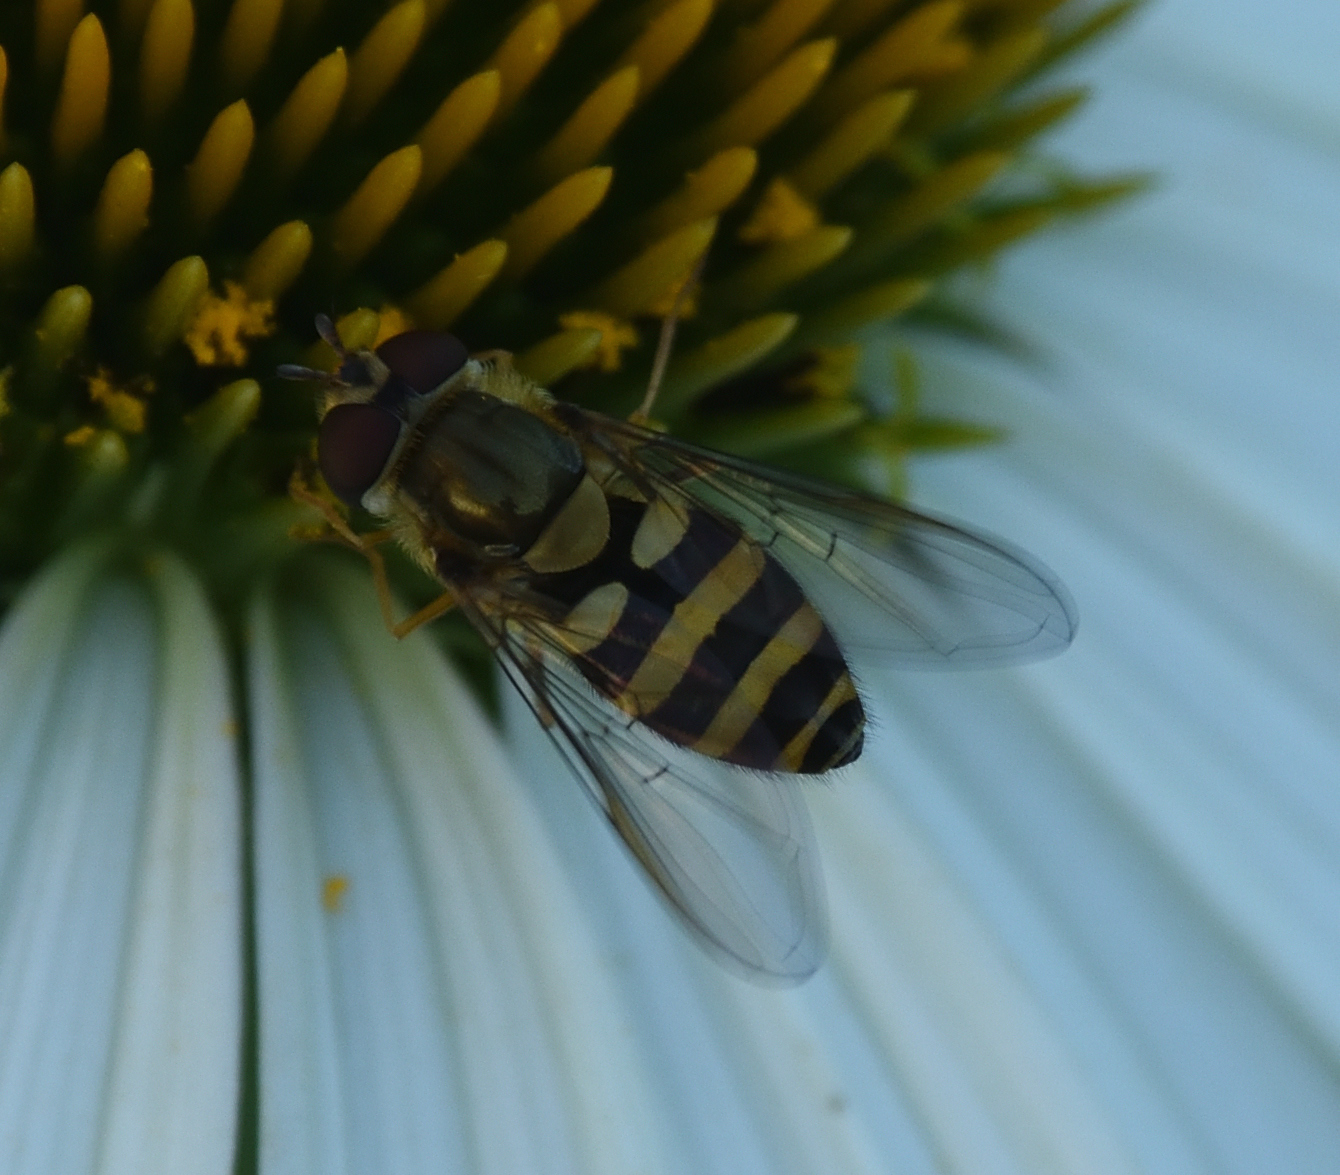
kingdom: Animalia
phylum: Arthropoda
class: Insecta
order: Diptera
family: Syrphidae
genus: Syrphus
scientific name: Syrphus
